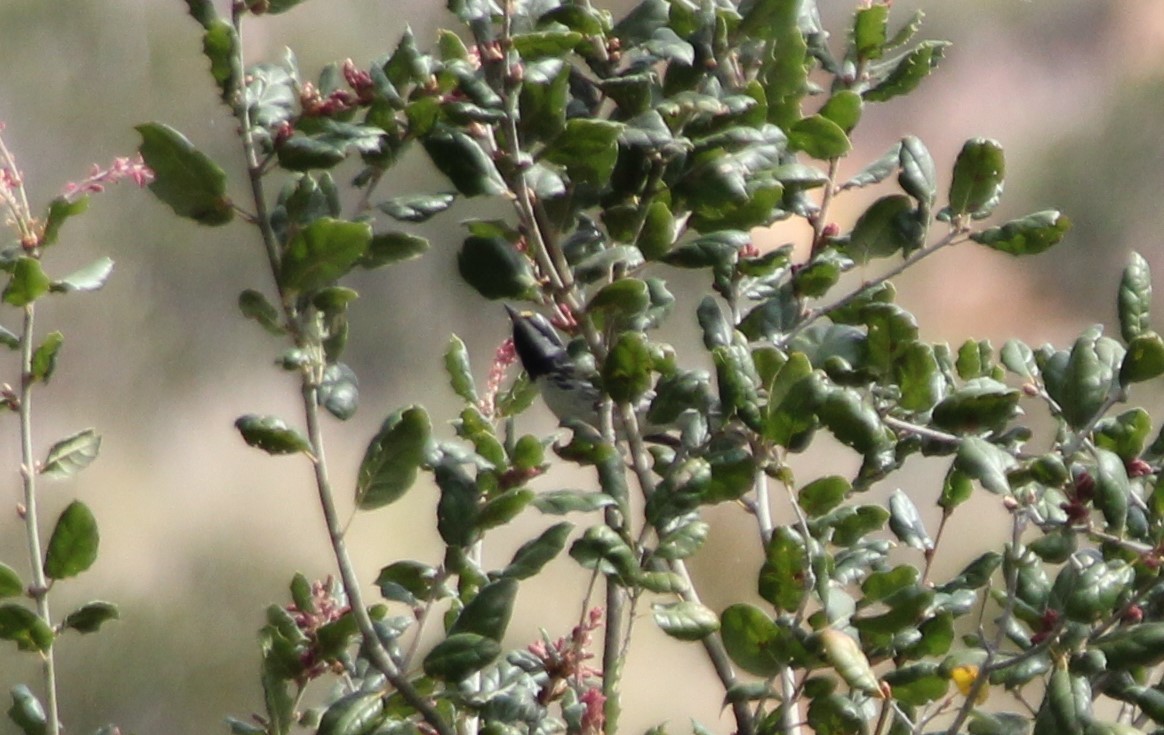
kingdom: Animalia
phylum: Chordata
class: Aves
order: Passeriformes
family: Parulidae
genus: Setophaga
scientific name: Setophaga nigrescens
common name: Black-throated gray warbler
